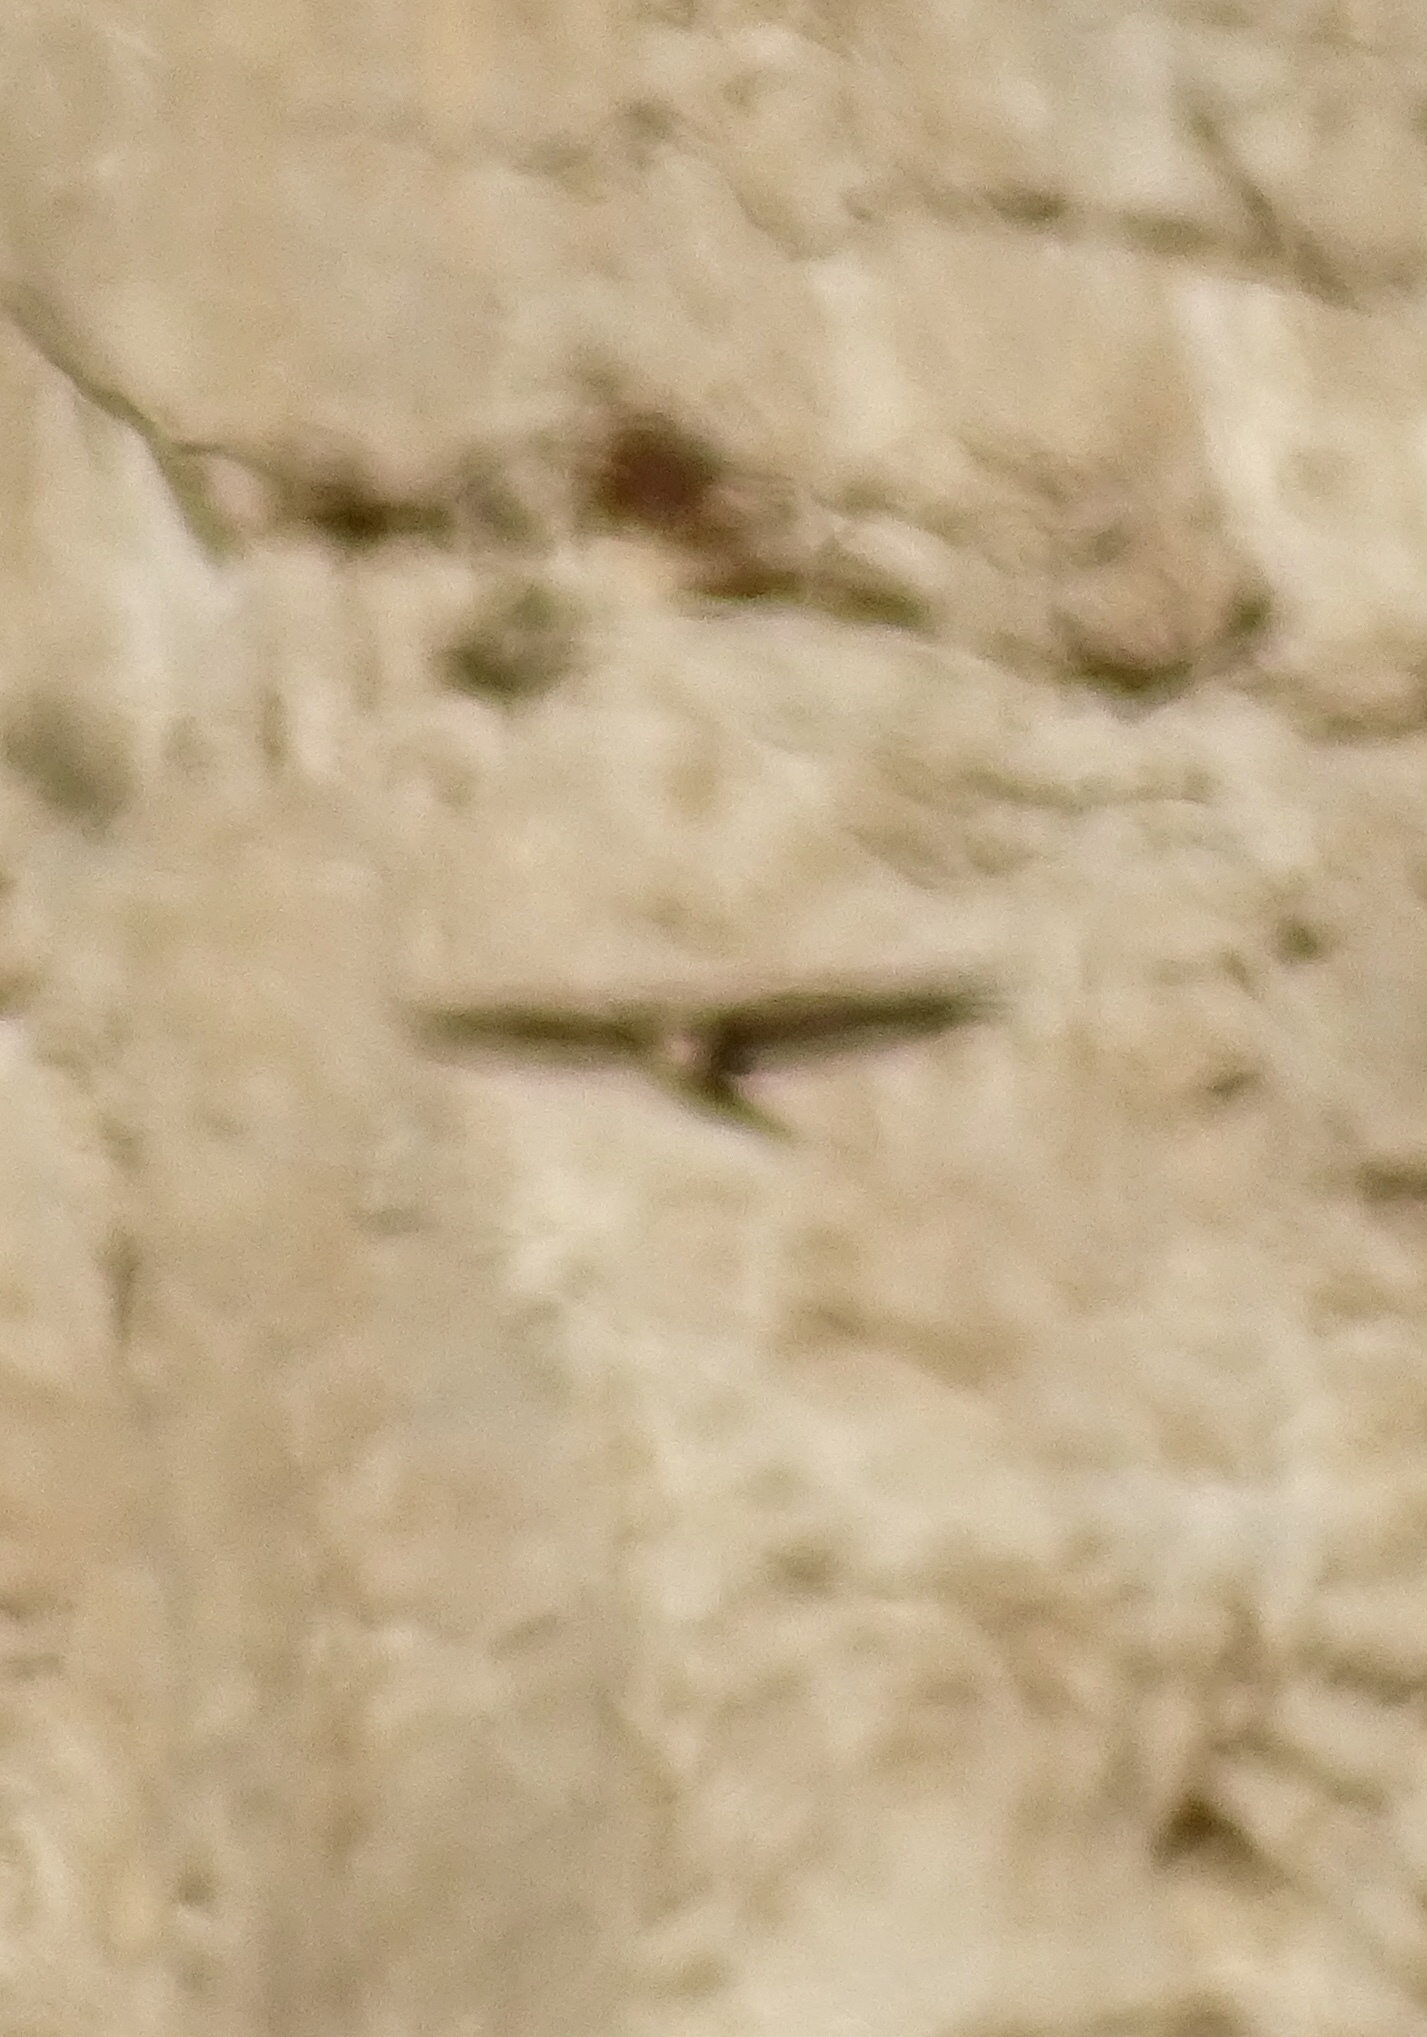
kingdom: Animalia
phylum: Chordata
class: Aves
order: Accipitriformes
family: Accipitridae
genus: Buteo
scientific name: Buteo jamaicensis
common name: Red-tailed hawk
